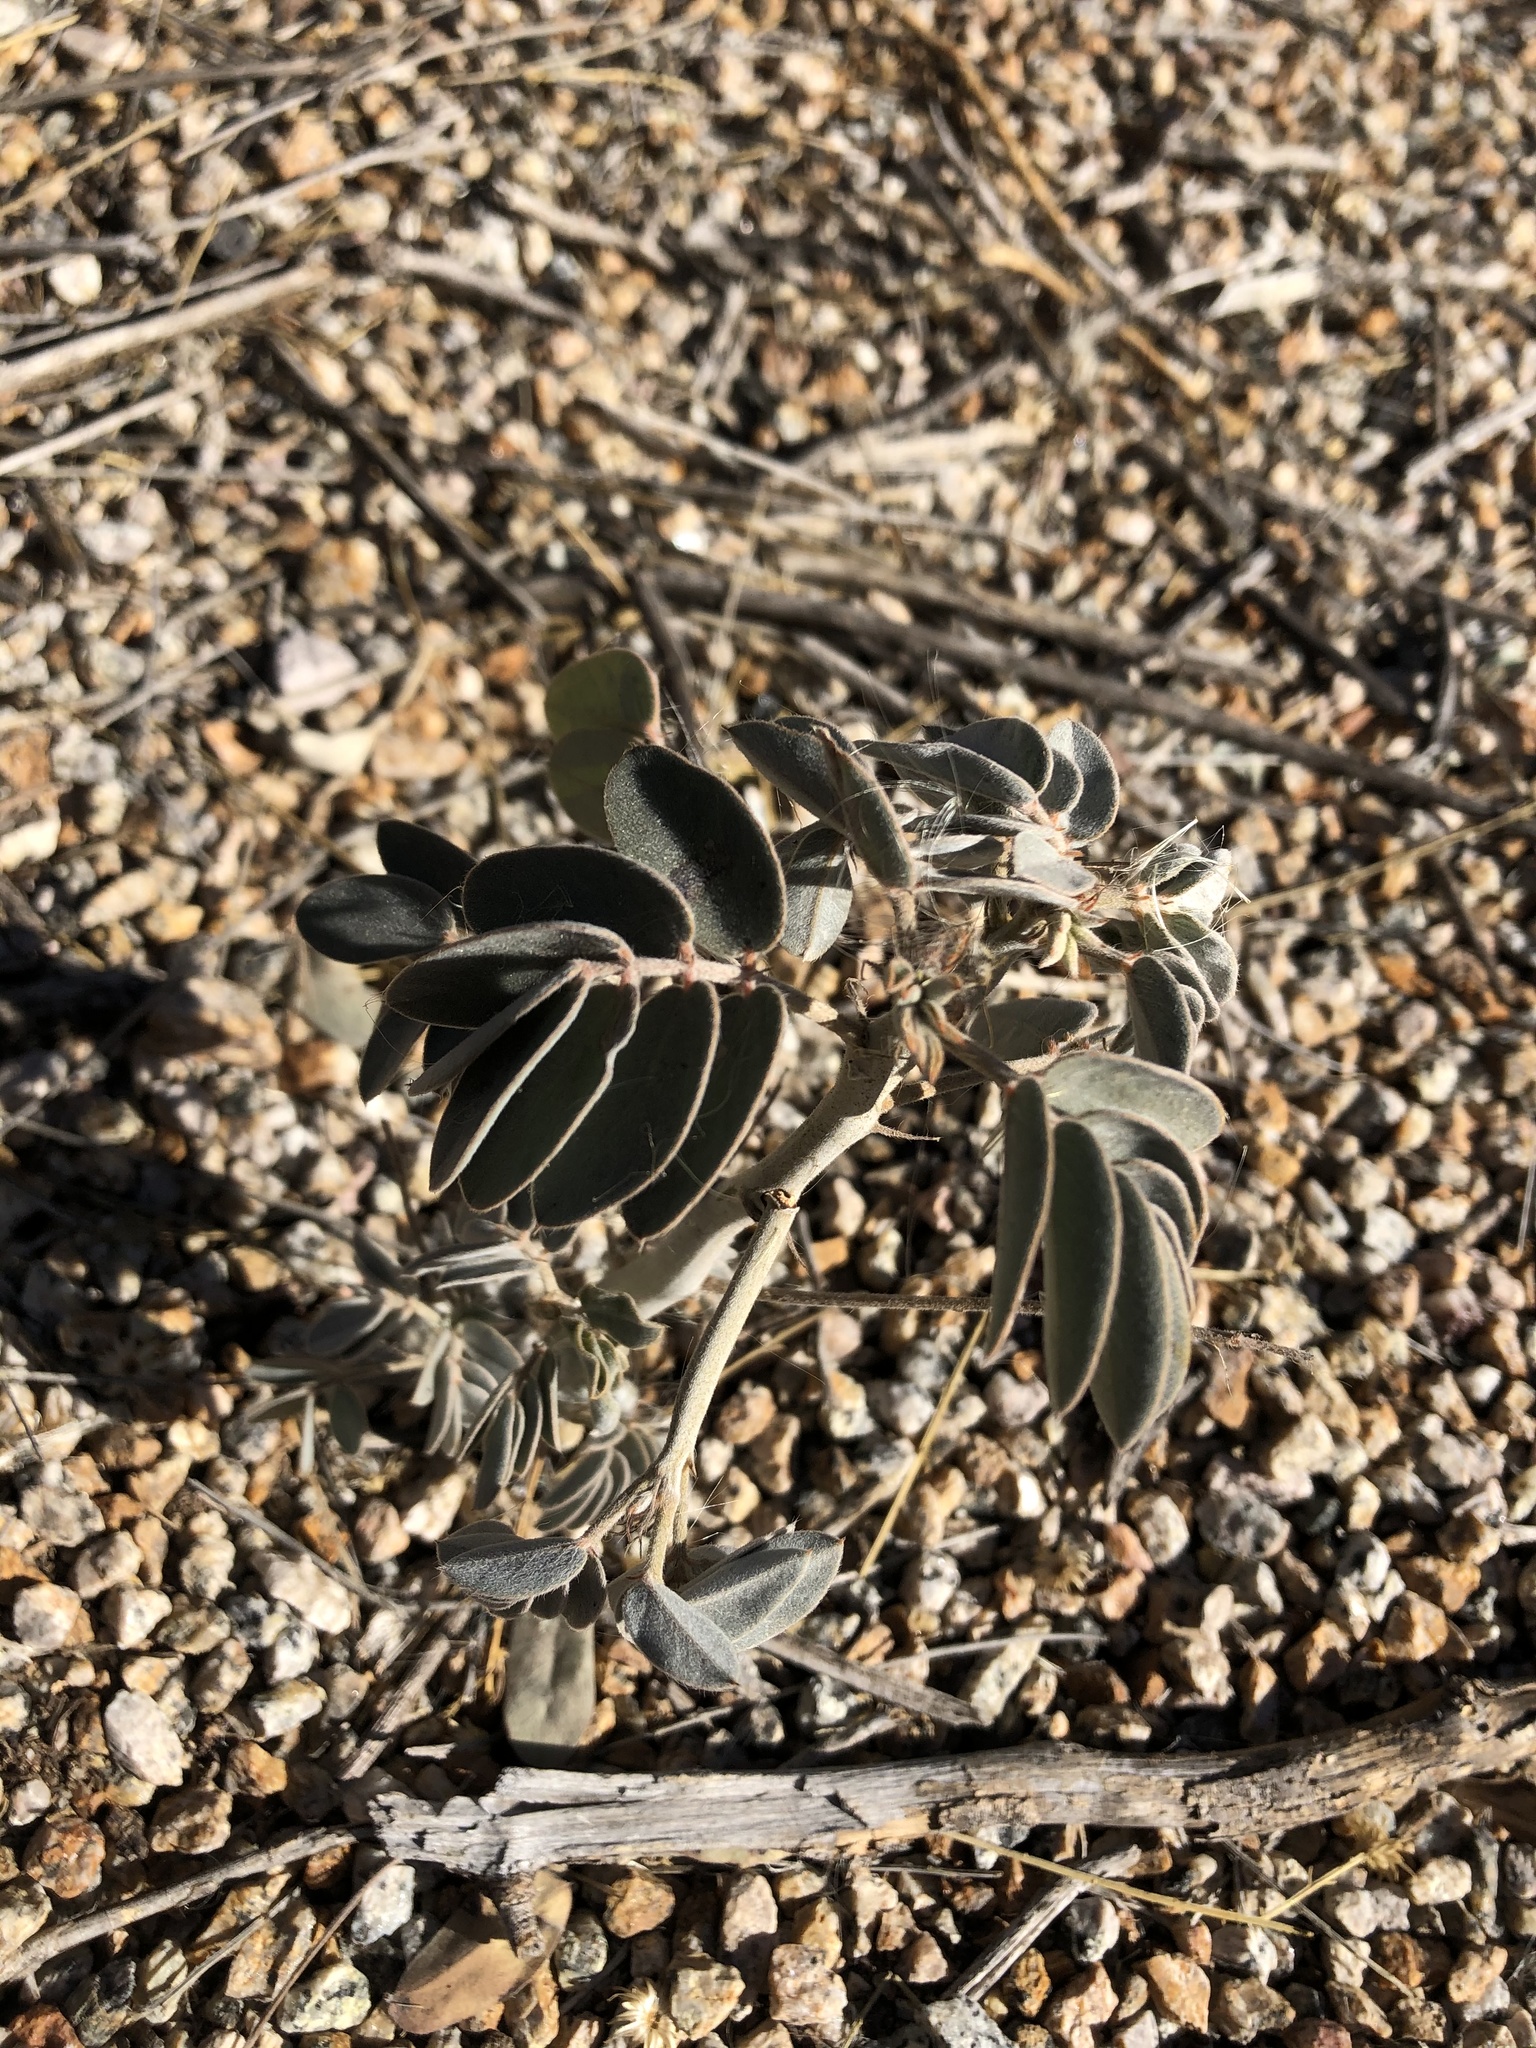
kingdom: Plantae
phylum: Tracheophyta
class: Magnoliopsida
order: Fabales
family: Fabaceae
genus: Senna
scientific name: Senna covesii
